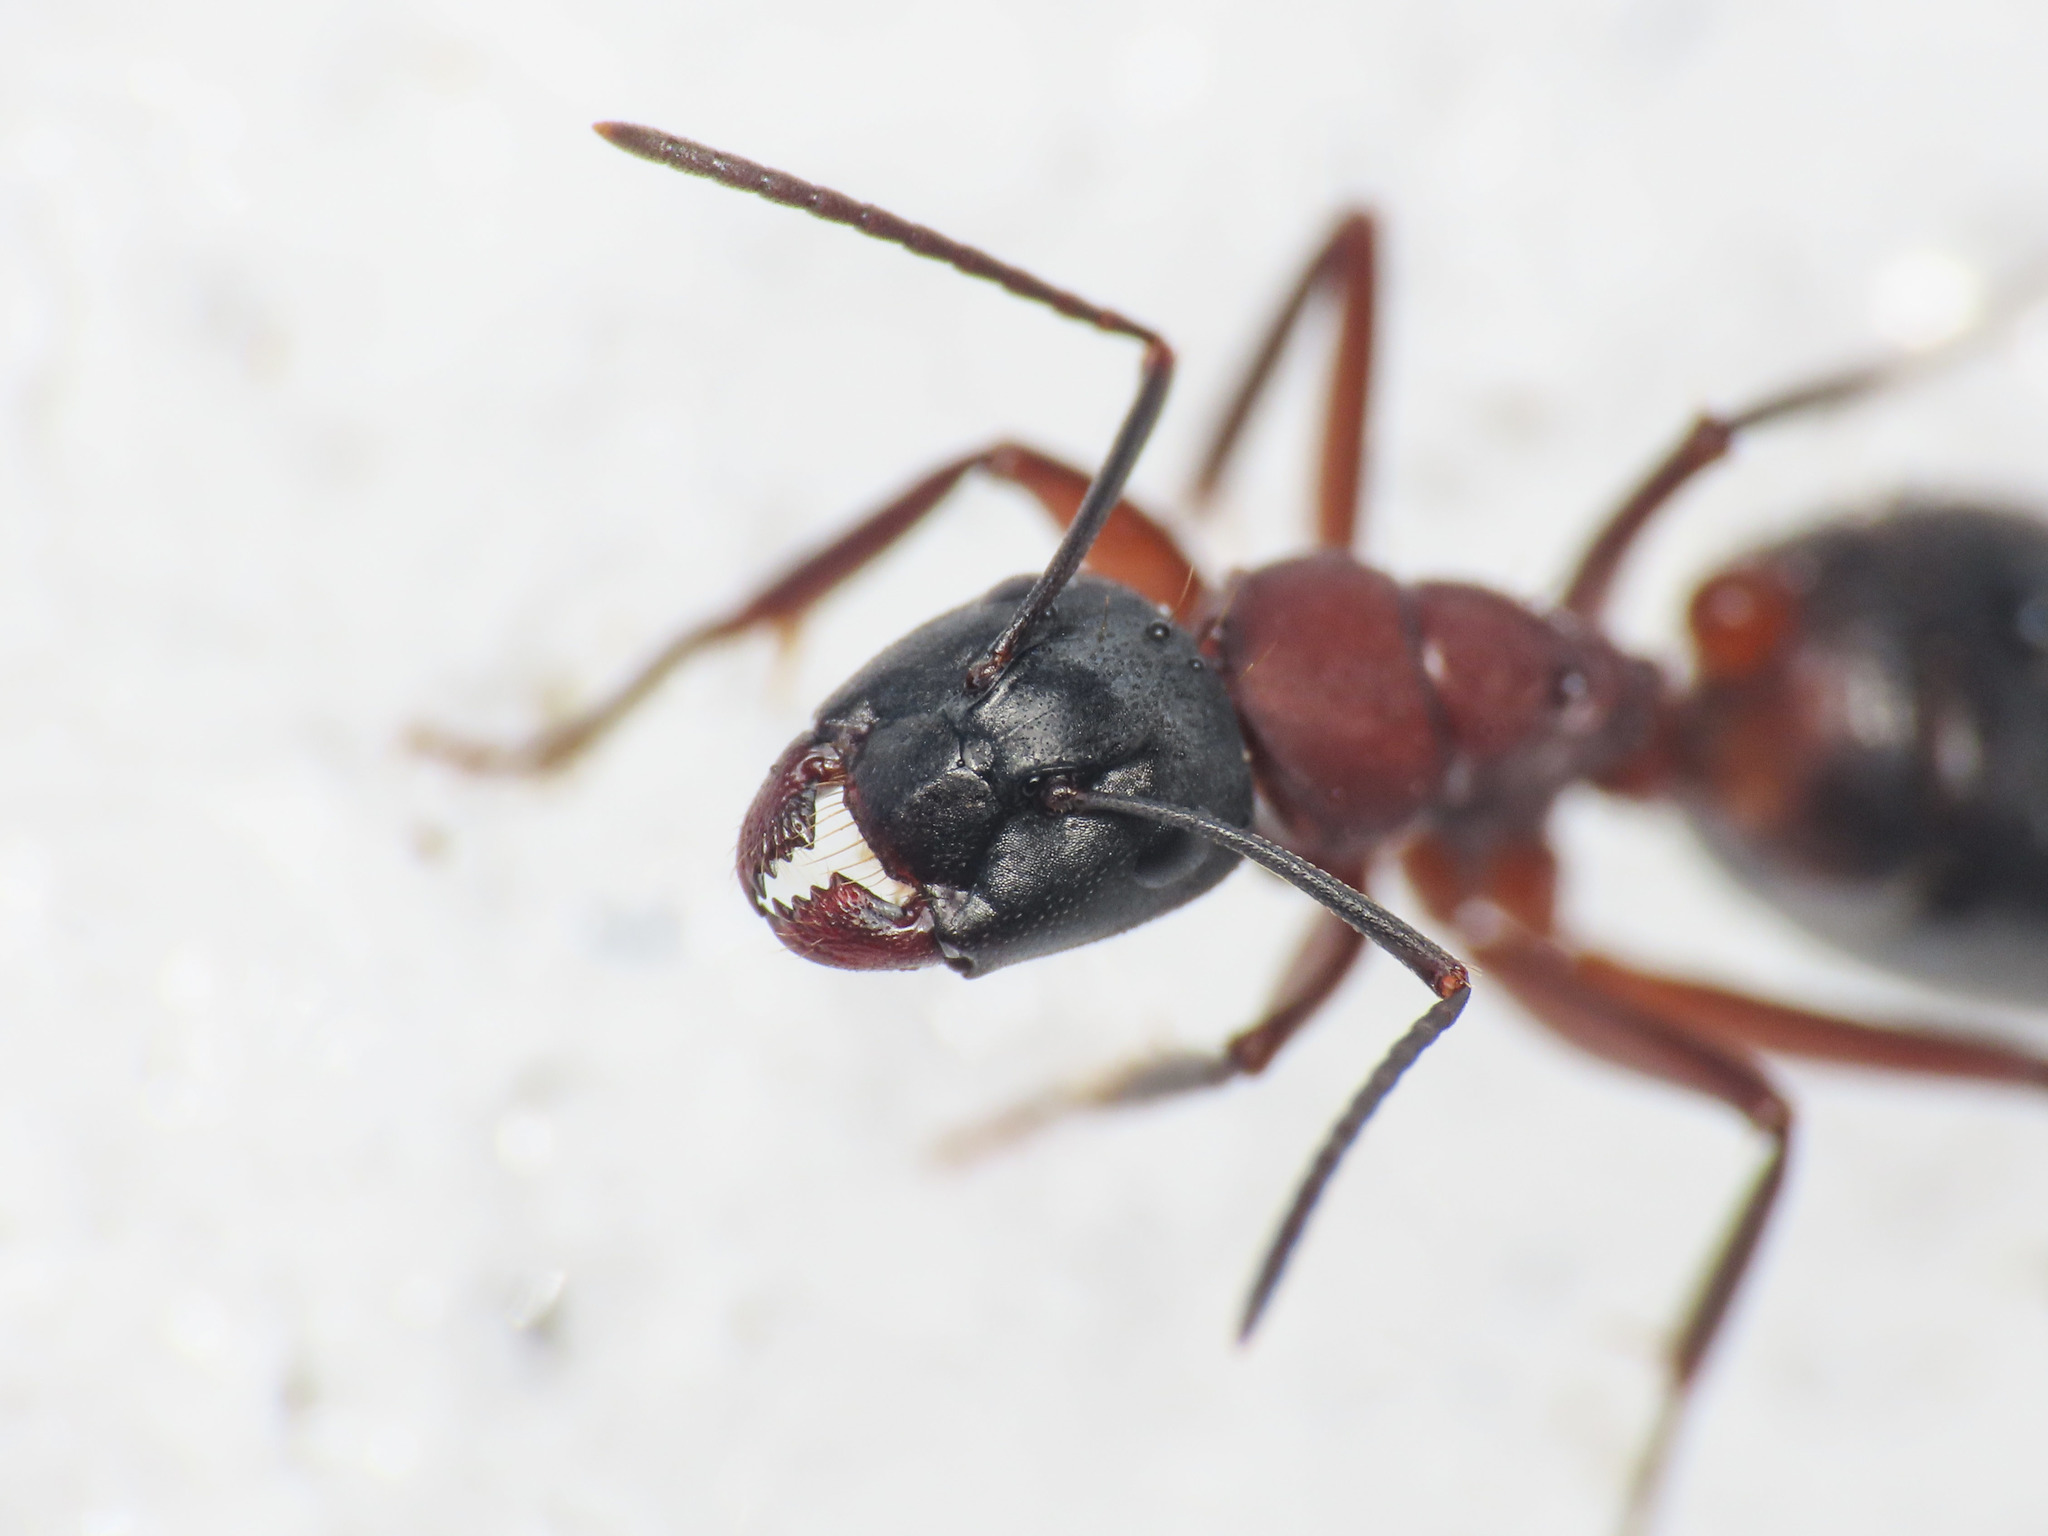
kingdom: Animalia
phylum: Arthropoda
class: Insecta
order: Hymenoptera
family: Formicidae
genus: Camponotus
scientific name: Camponotus ligniperdus
